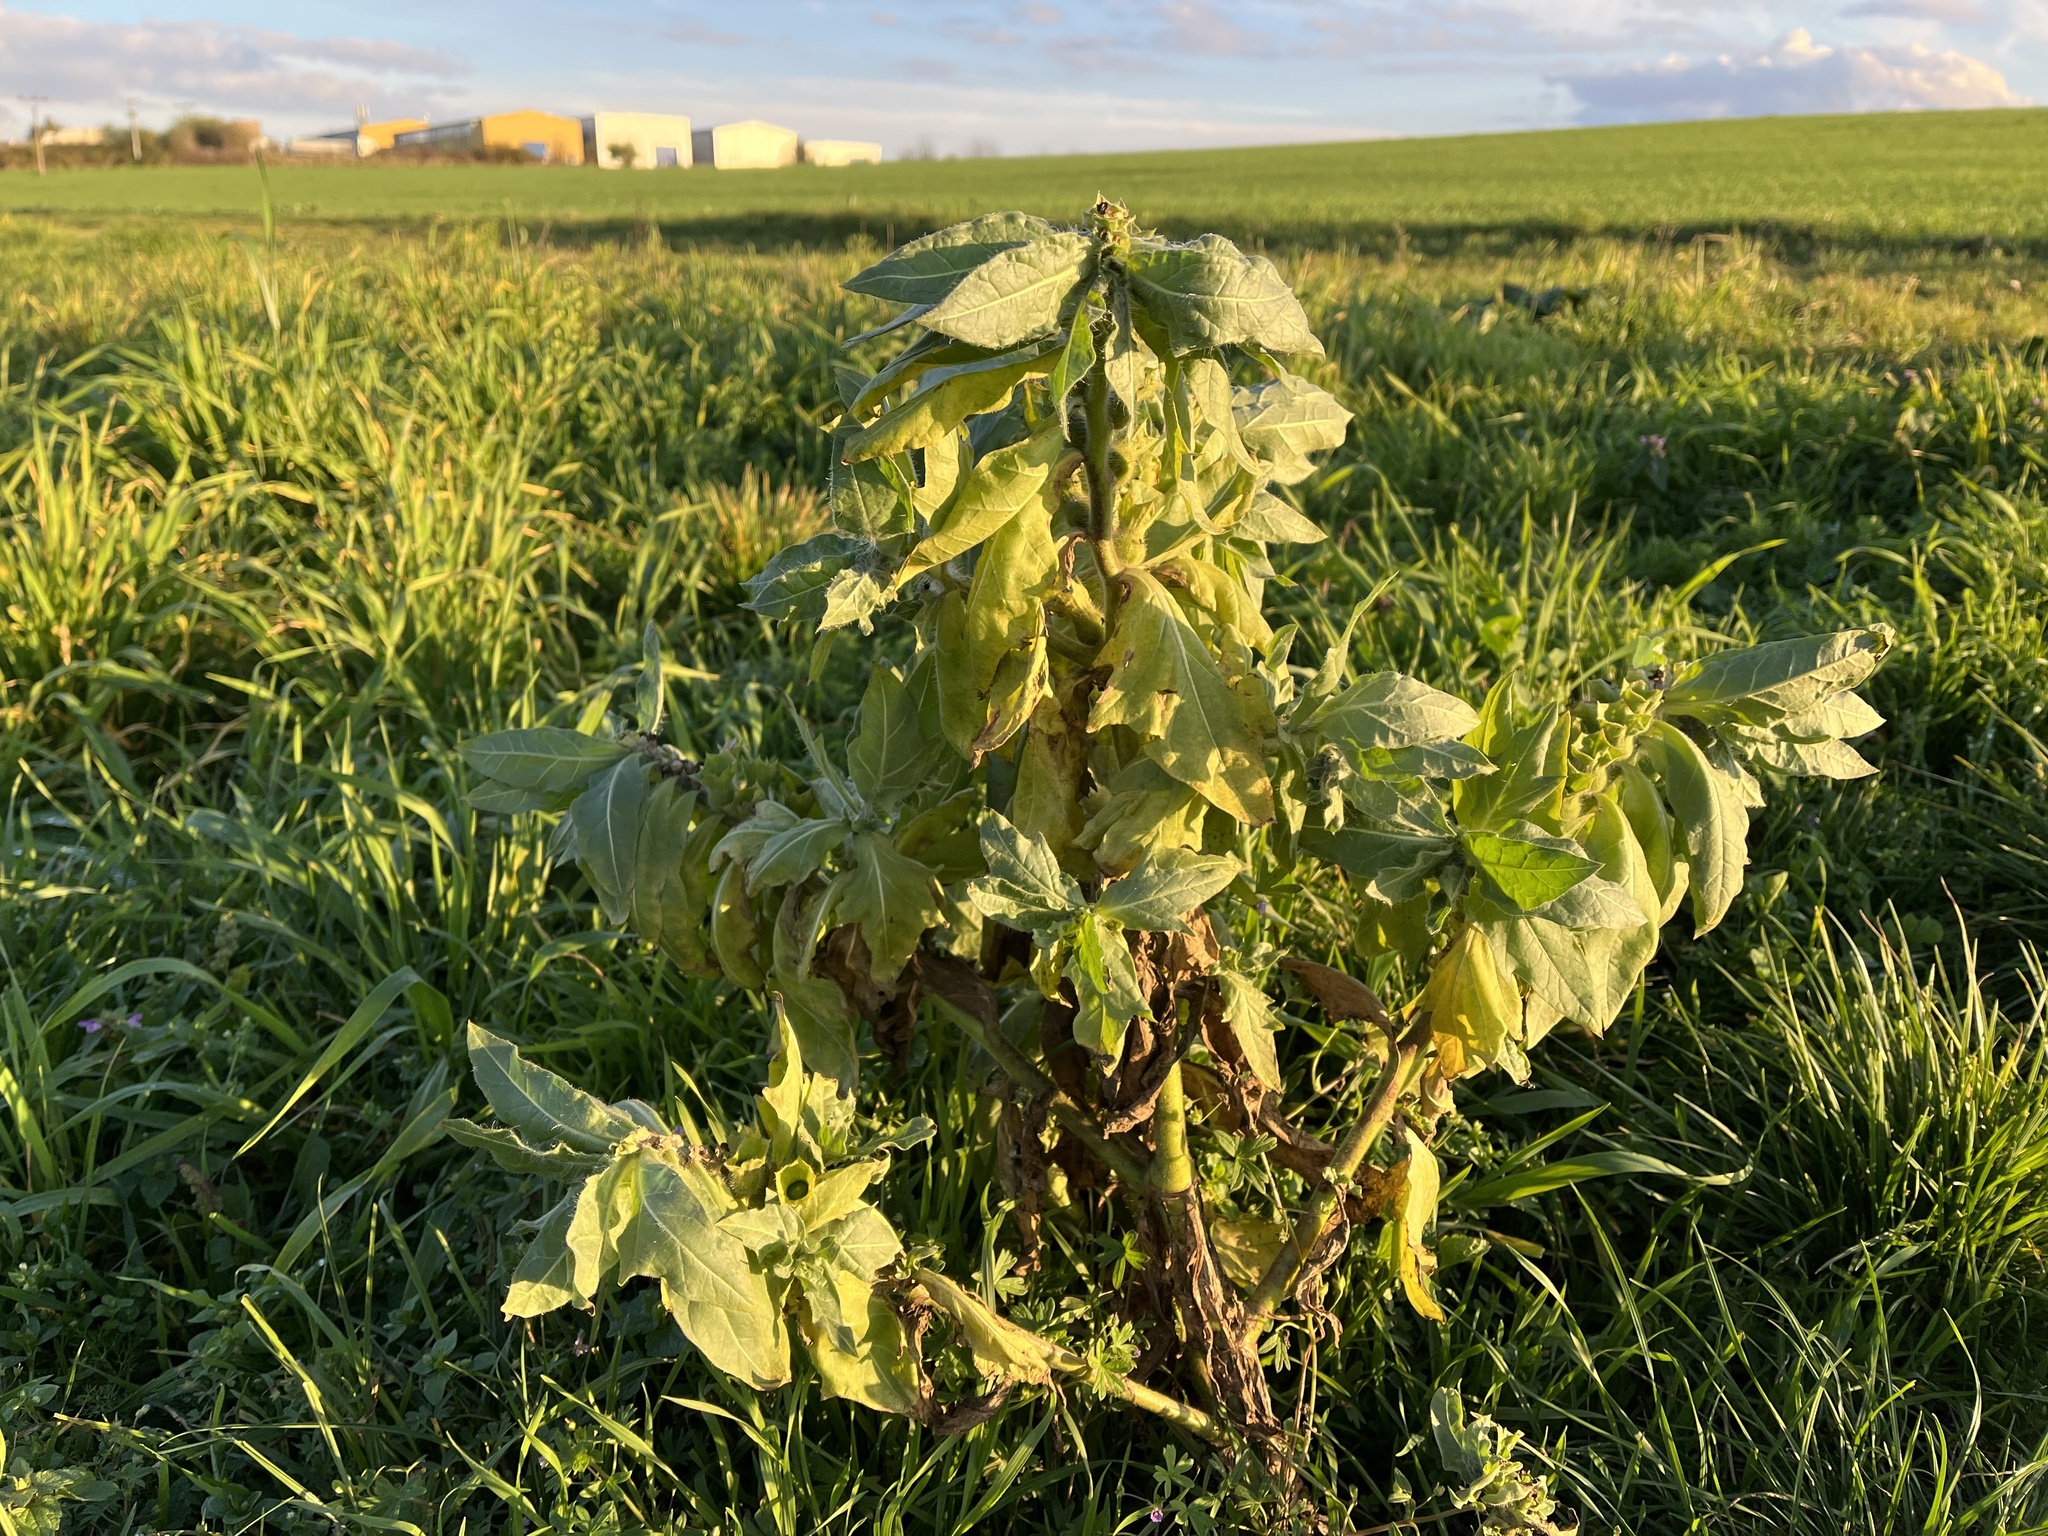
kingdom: Plantae
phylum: Tracheophyta
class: Magnoliopsida
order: Solanales
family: Solanaceae
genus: Hyoscyamus
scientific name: Hyoscyamus niger
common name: Henbane
